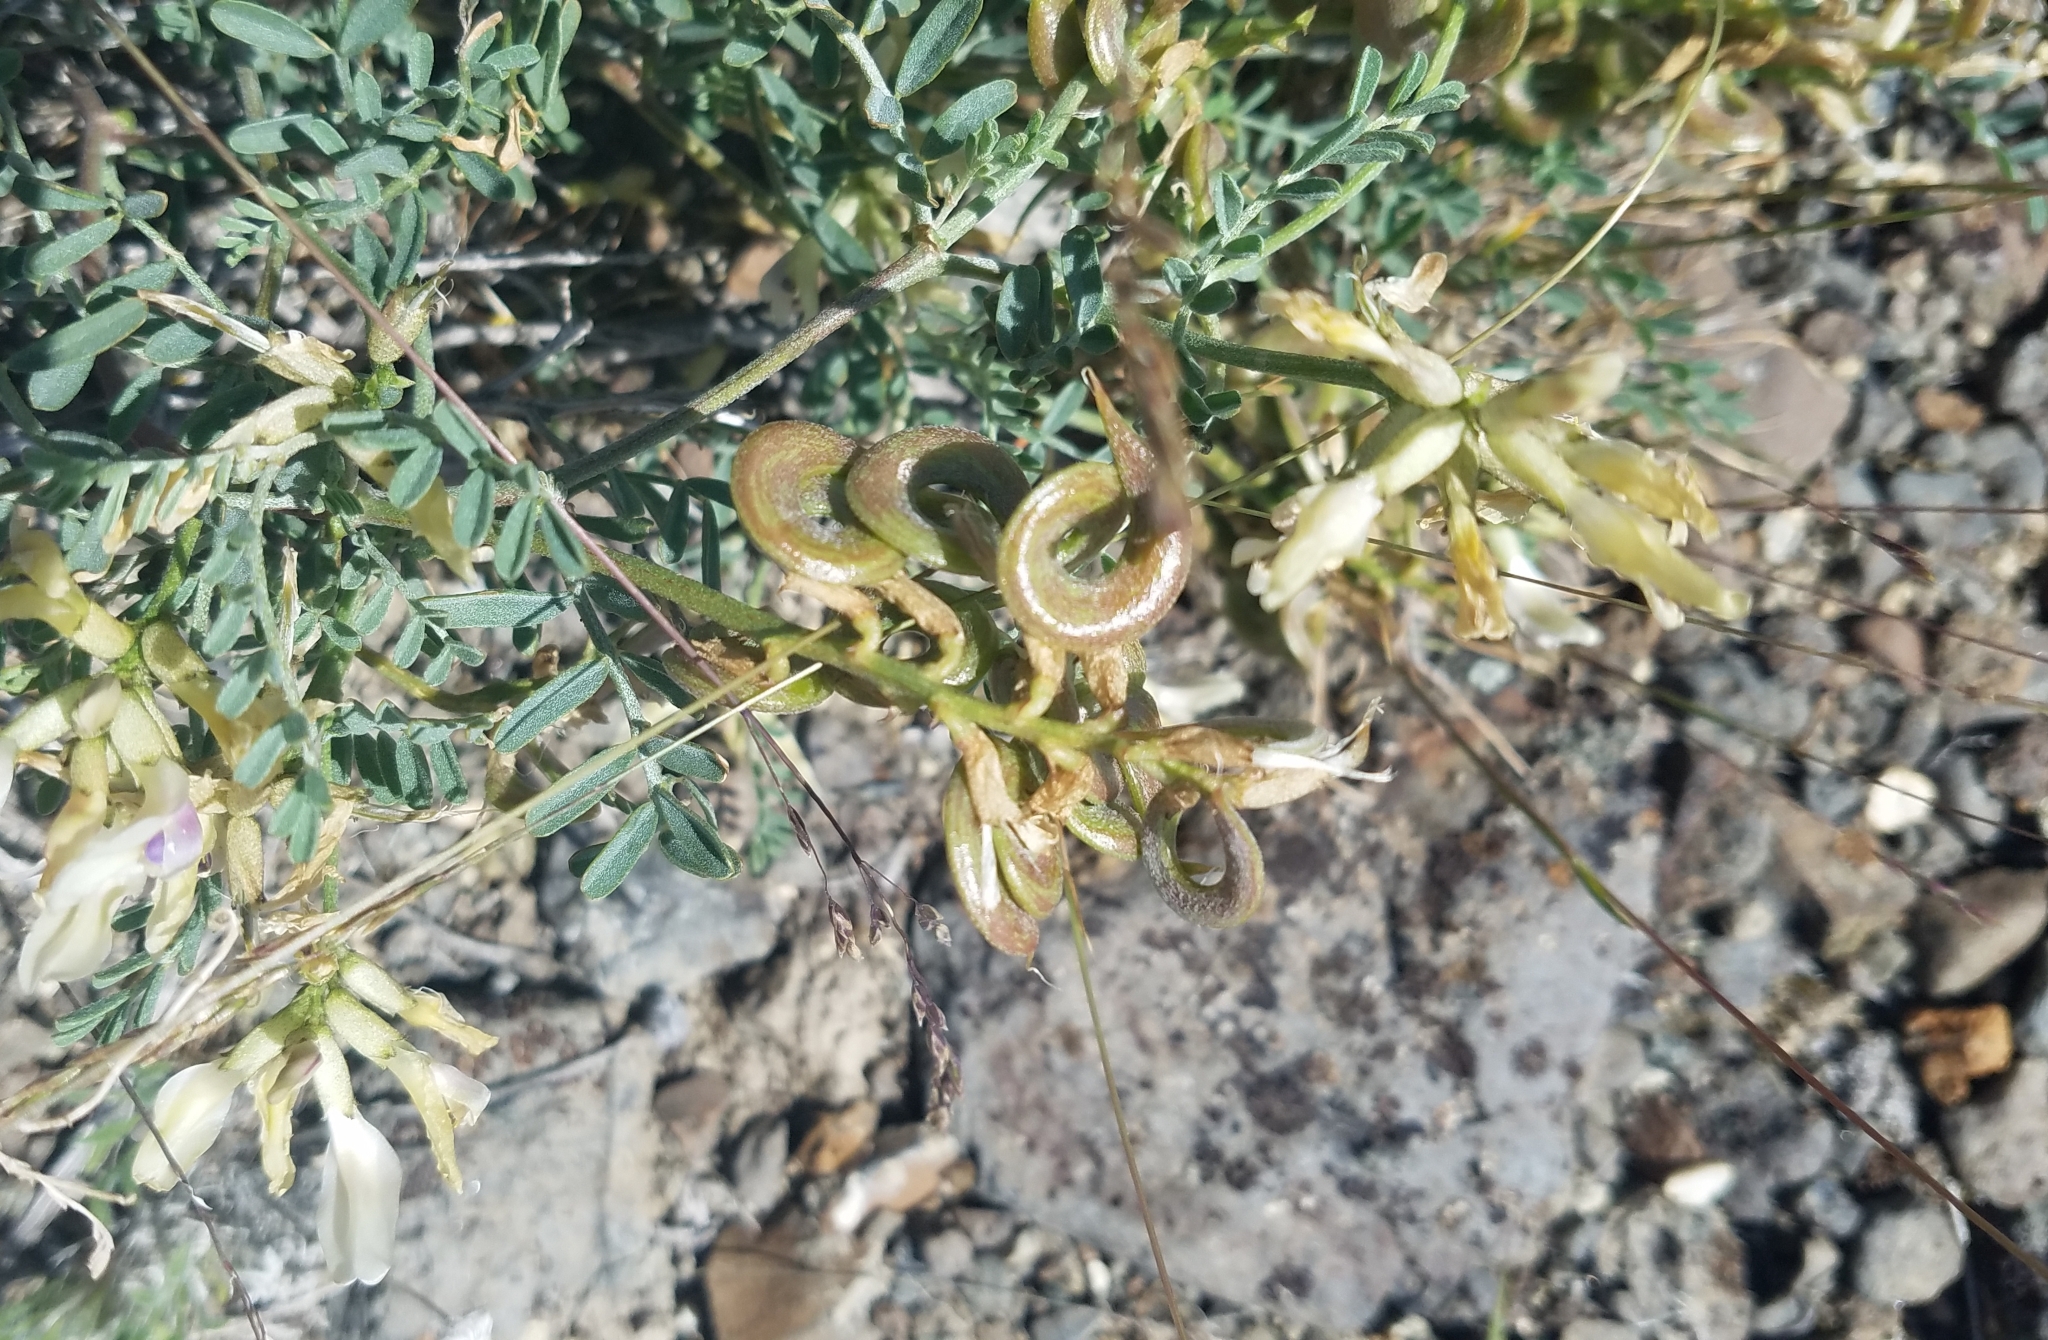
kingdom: Plantae
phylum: Tracheophyta
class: Magnoliopsida
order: Fabales
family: Fabaceae
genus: Astragalus
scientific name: Astragalus speirocarpus
